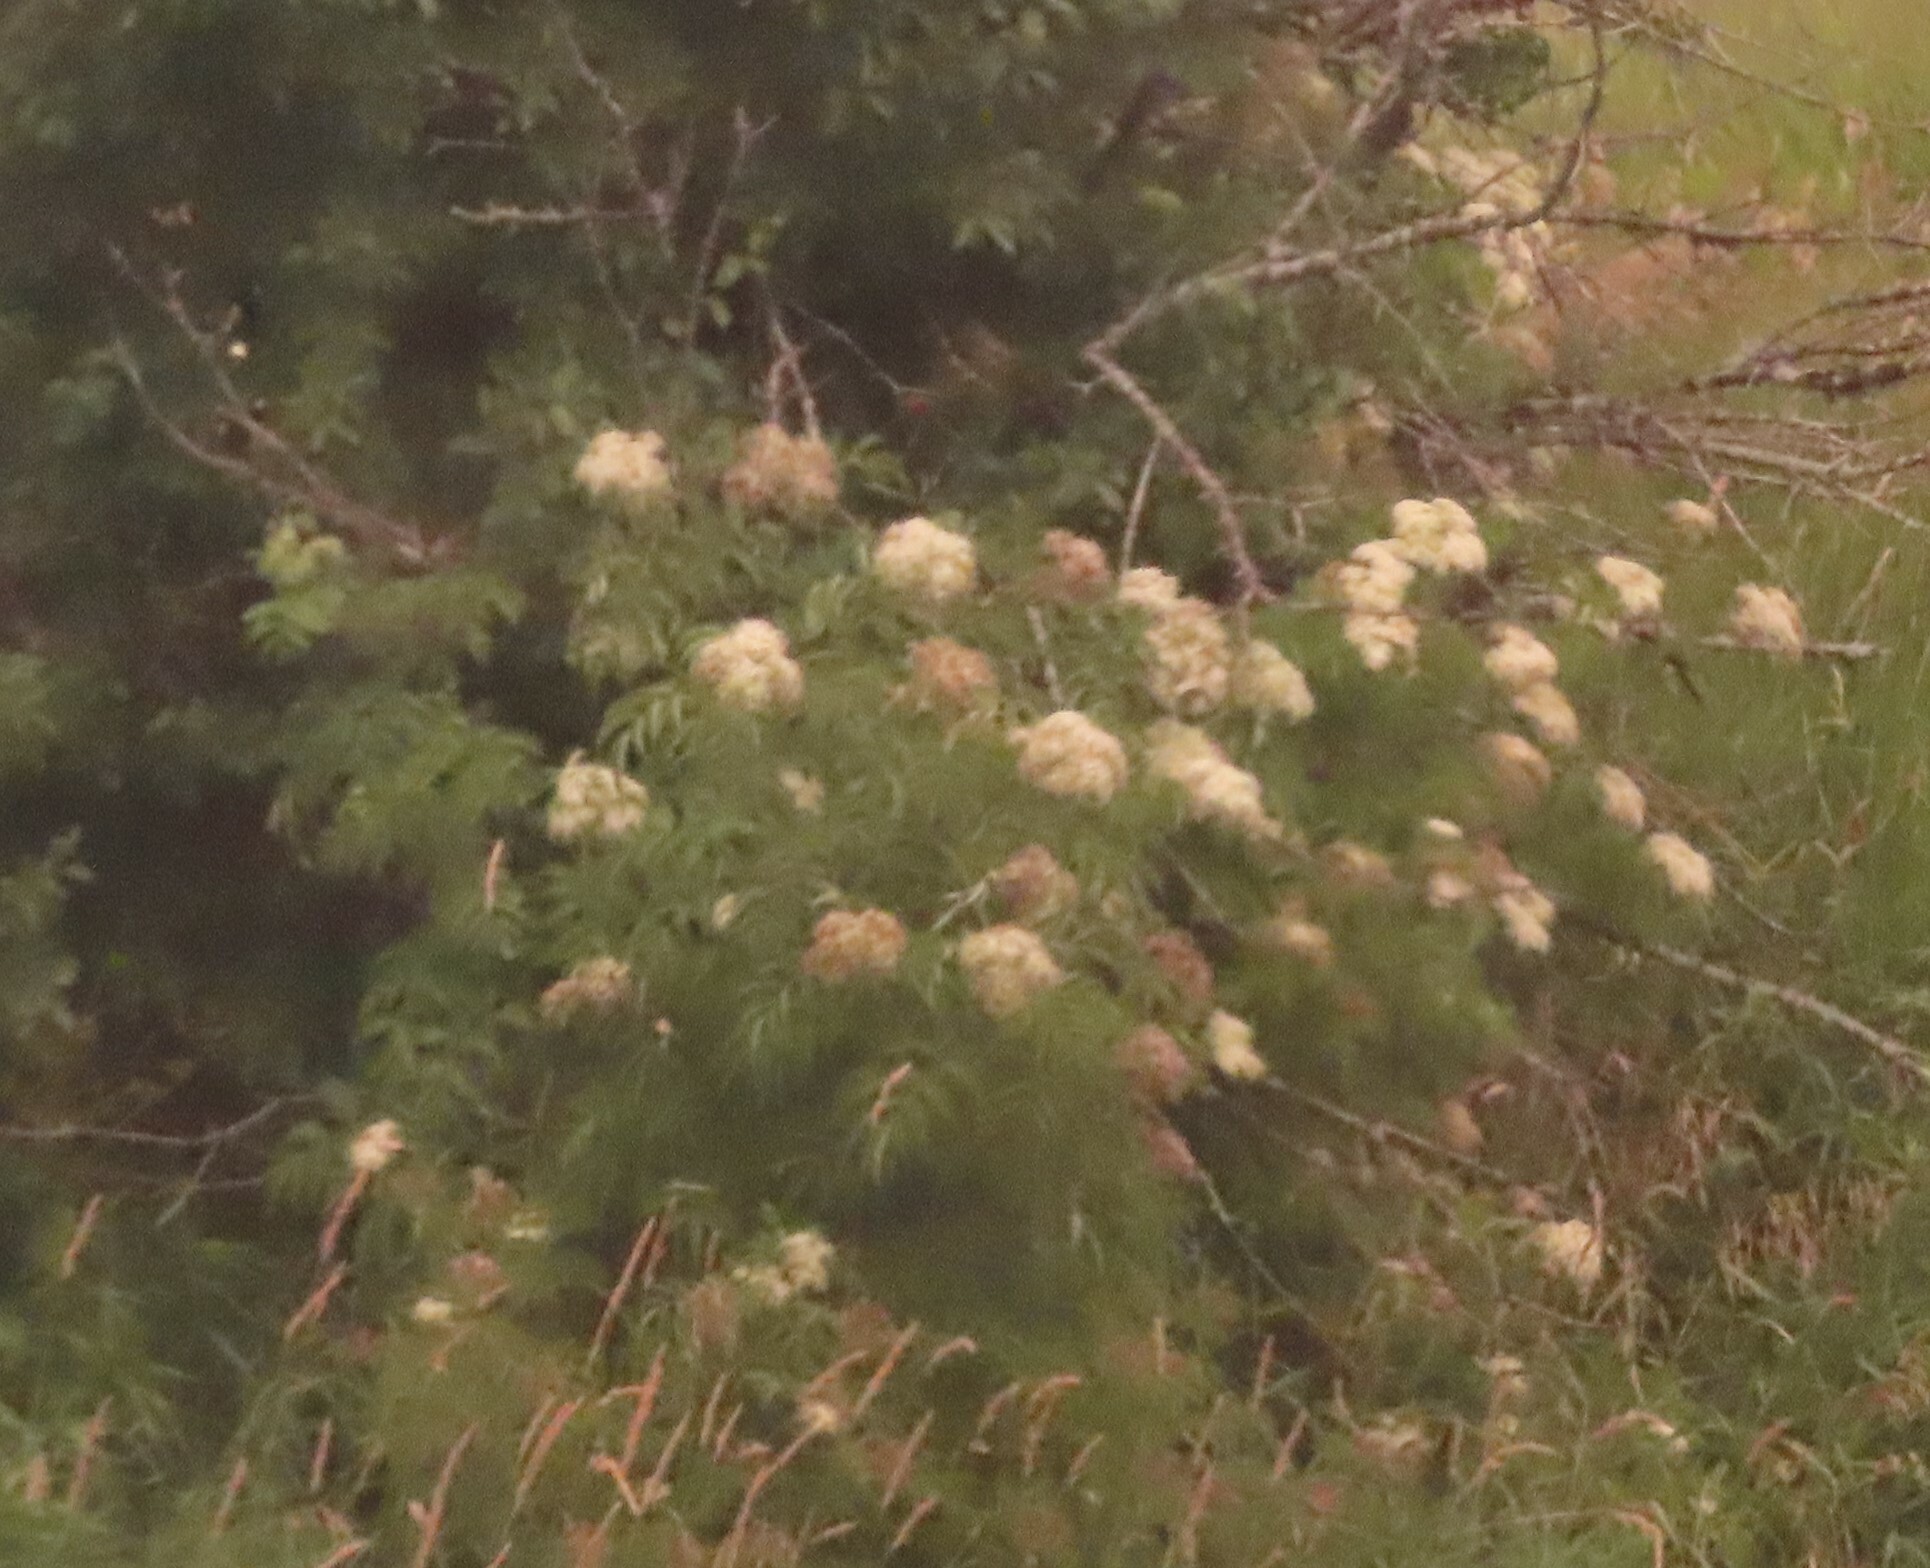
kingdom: Plantae
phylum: Tracheophyta
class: Magnoliopsida
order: Dipsacales
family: Viburnaceae
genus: Sambucus
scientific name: Sambucus canadensis
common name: American elder
